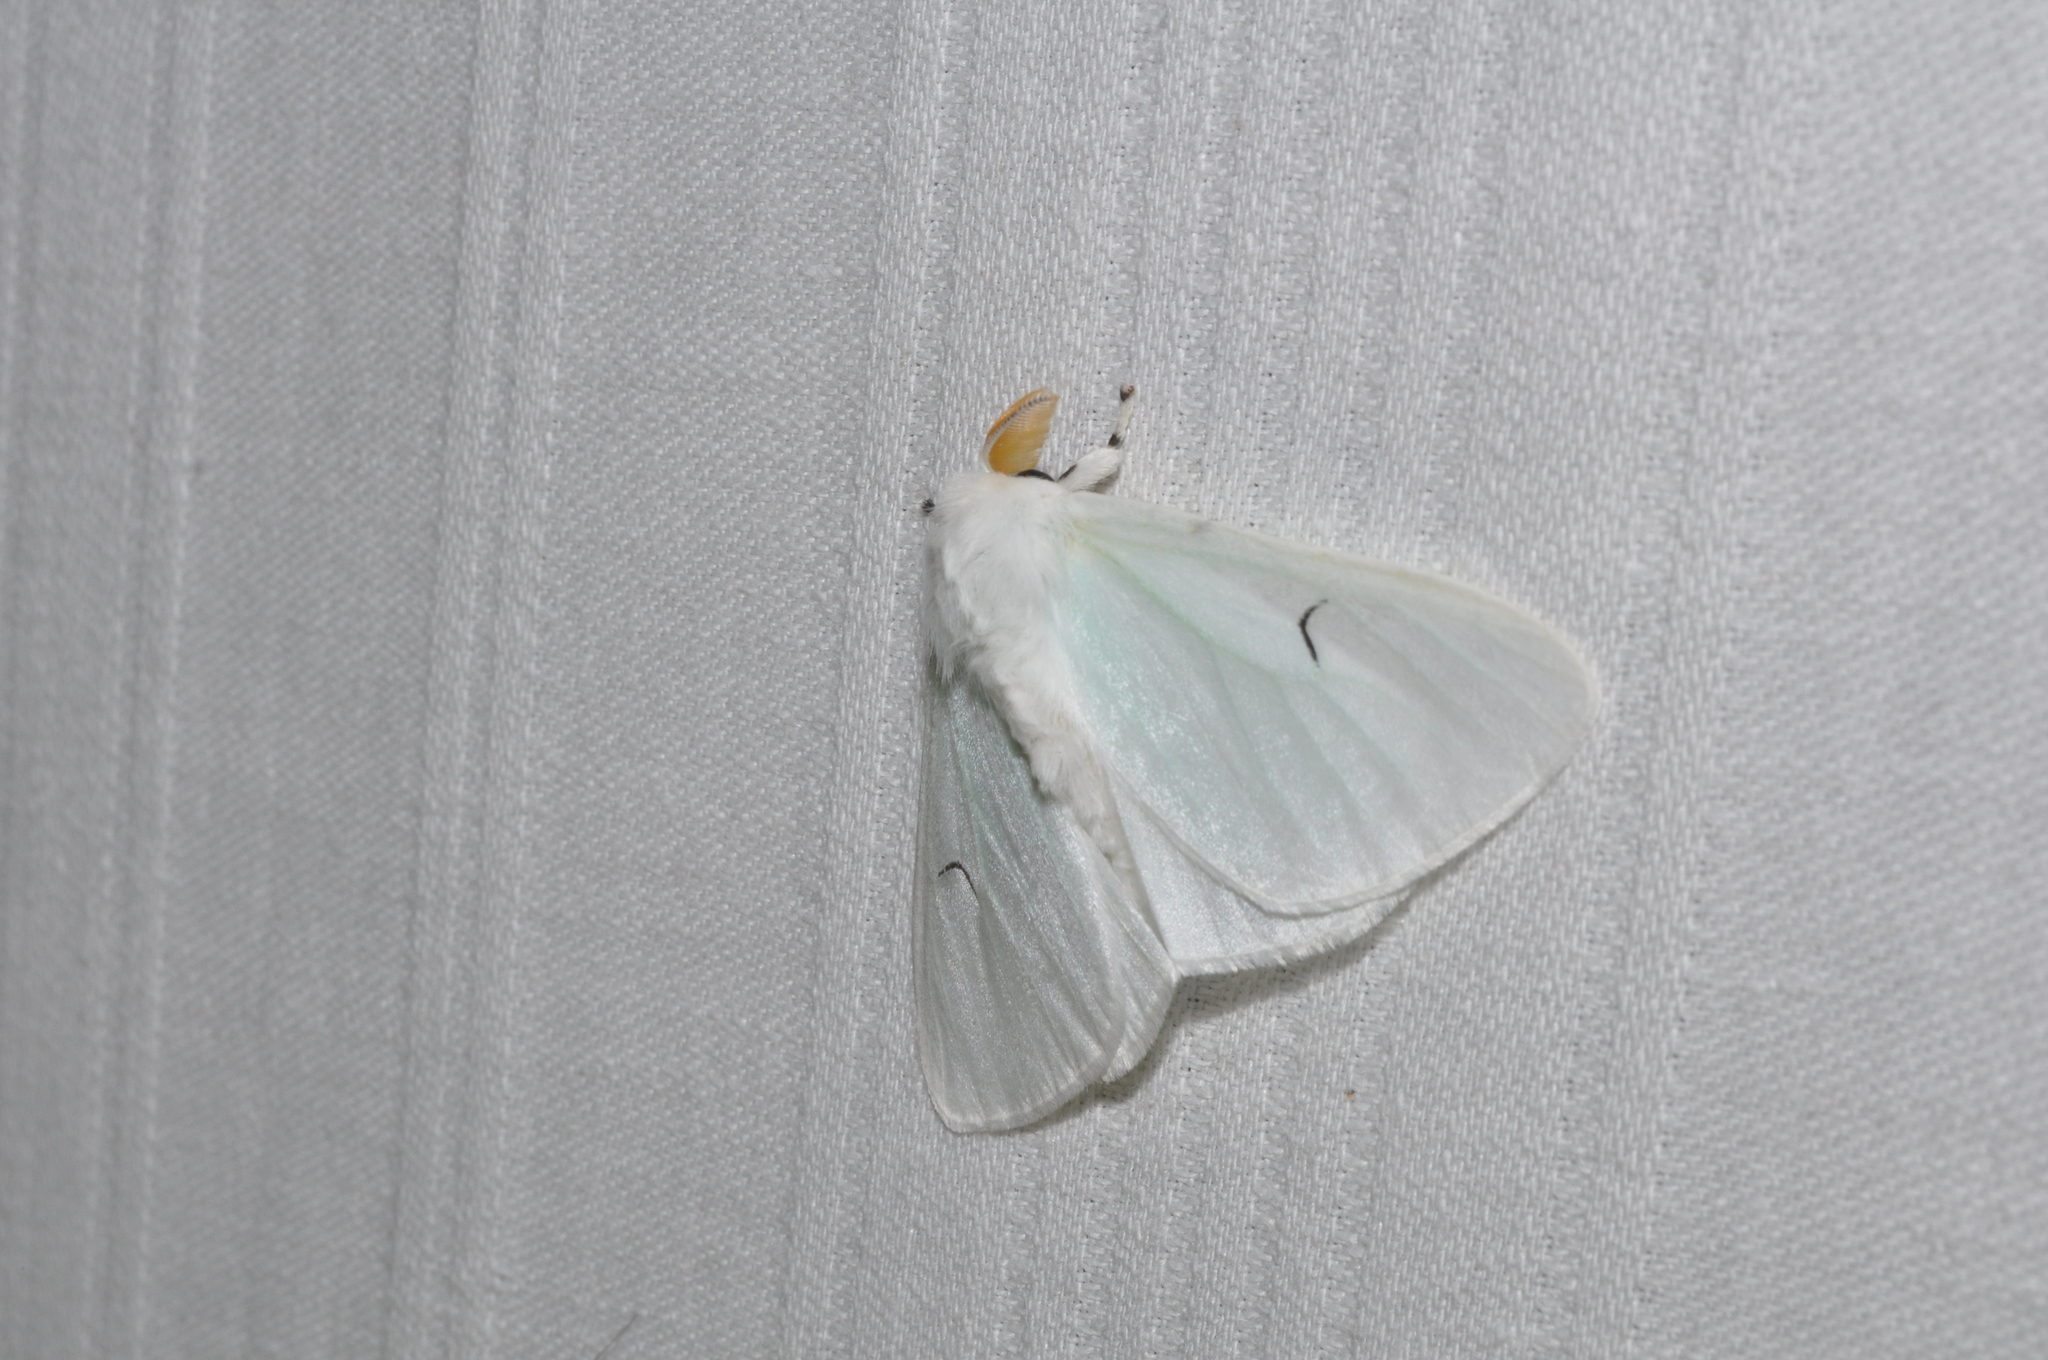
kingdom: Animalia
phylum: Arthropoda
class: Insecta
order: Lepidoptera
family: Erebidae
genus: Arctornis
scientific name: Arctornis l-nigrum
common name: Black v moth
